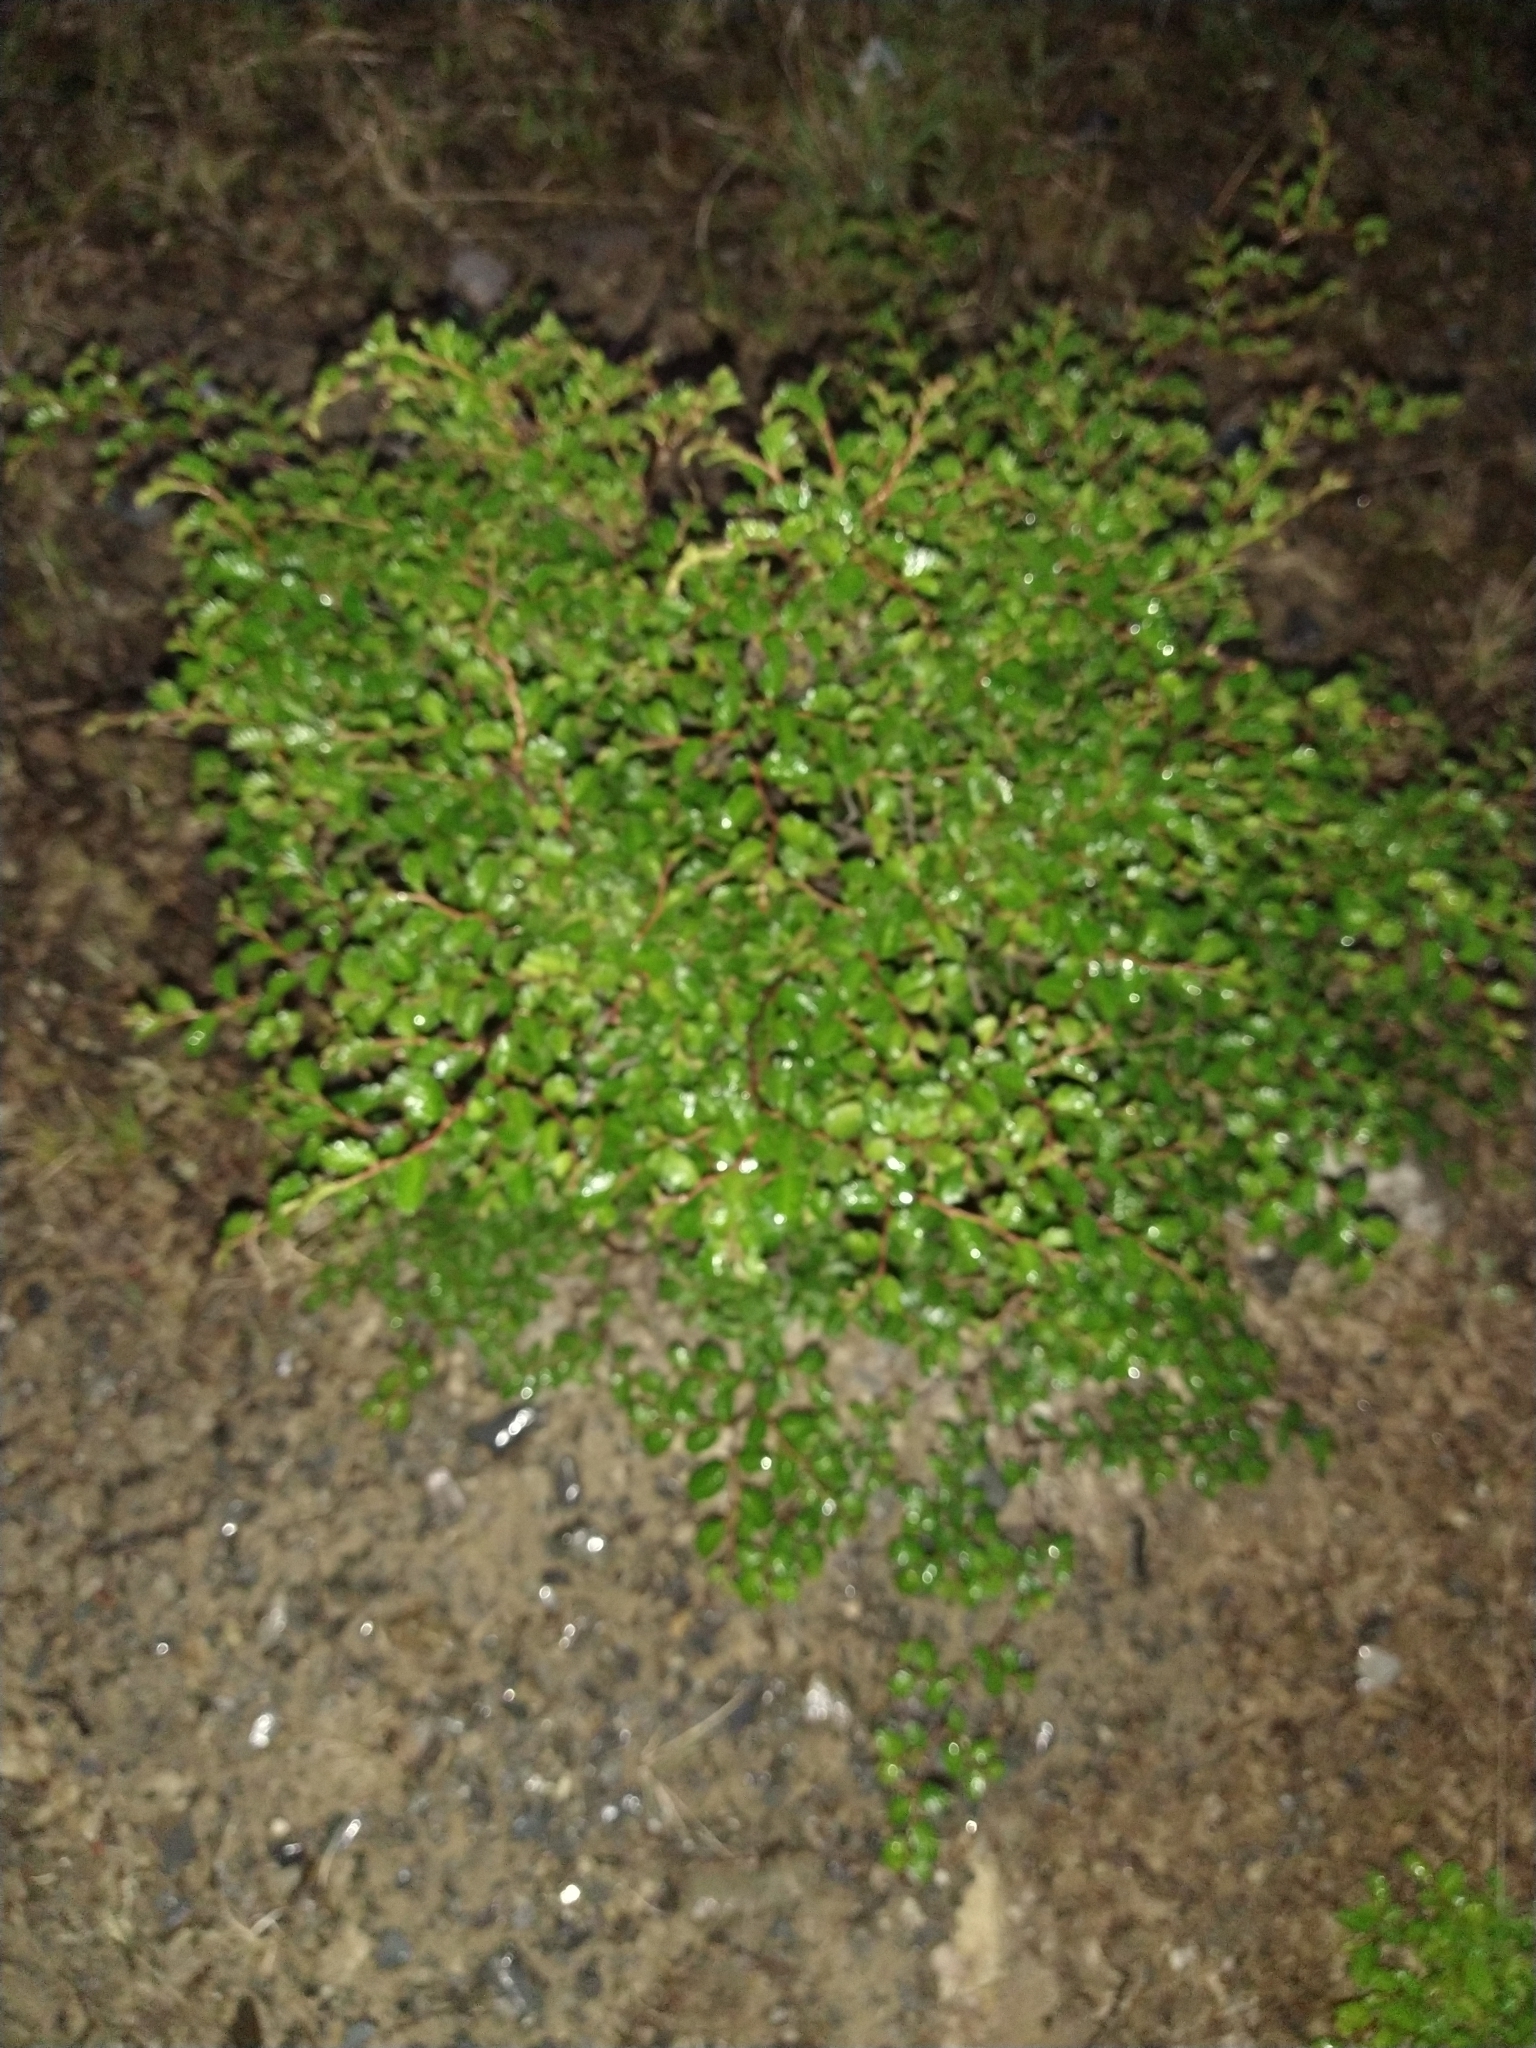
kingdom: Plantae
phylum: Tracheophyta
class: Magnoliopsida
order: Fagales
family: Nothofagaceae
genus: Nothofagus
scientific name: Nothofagus pumilio
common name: Lenga beech
